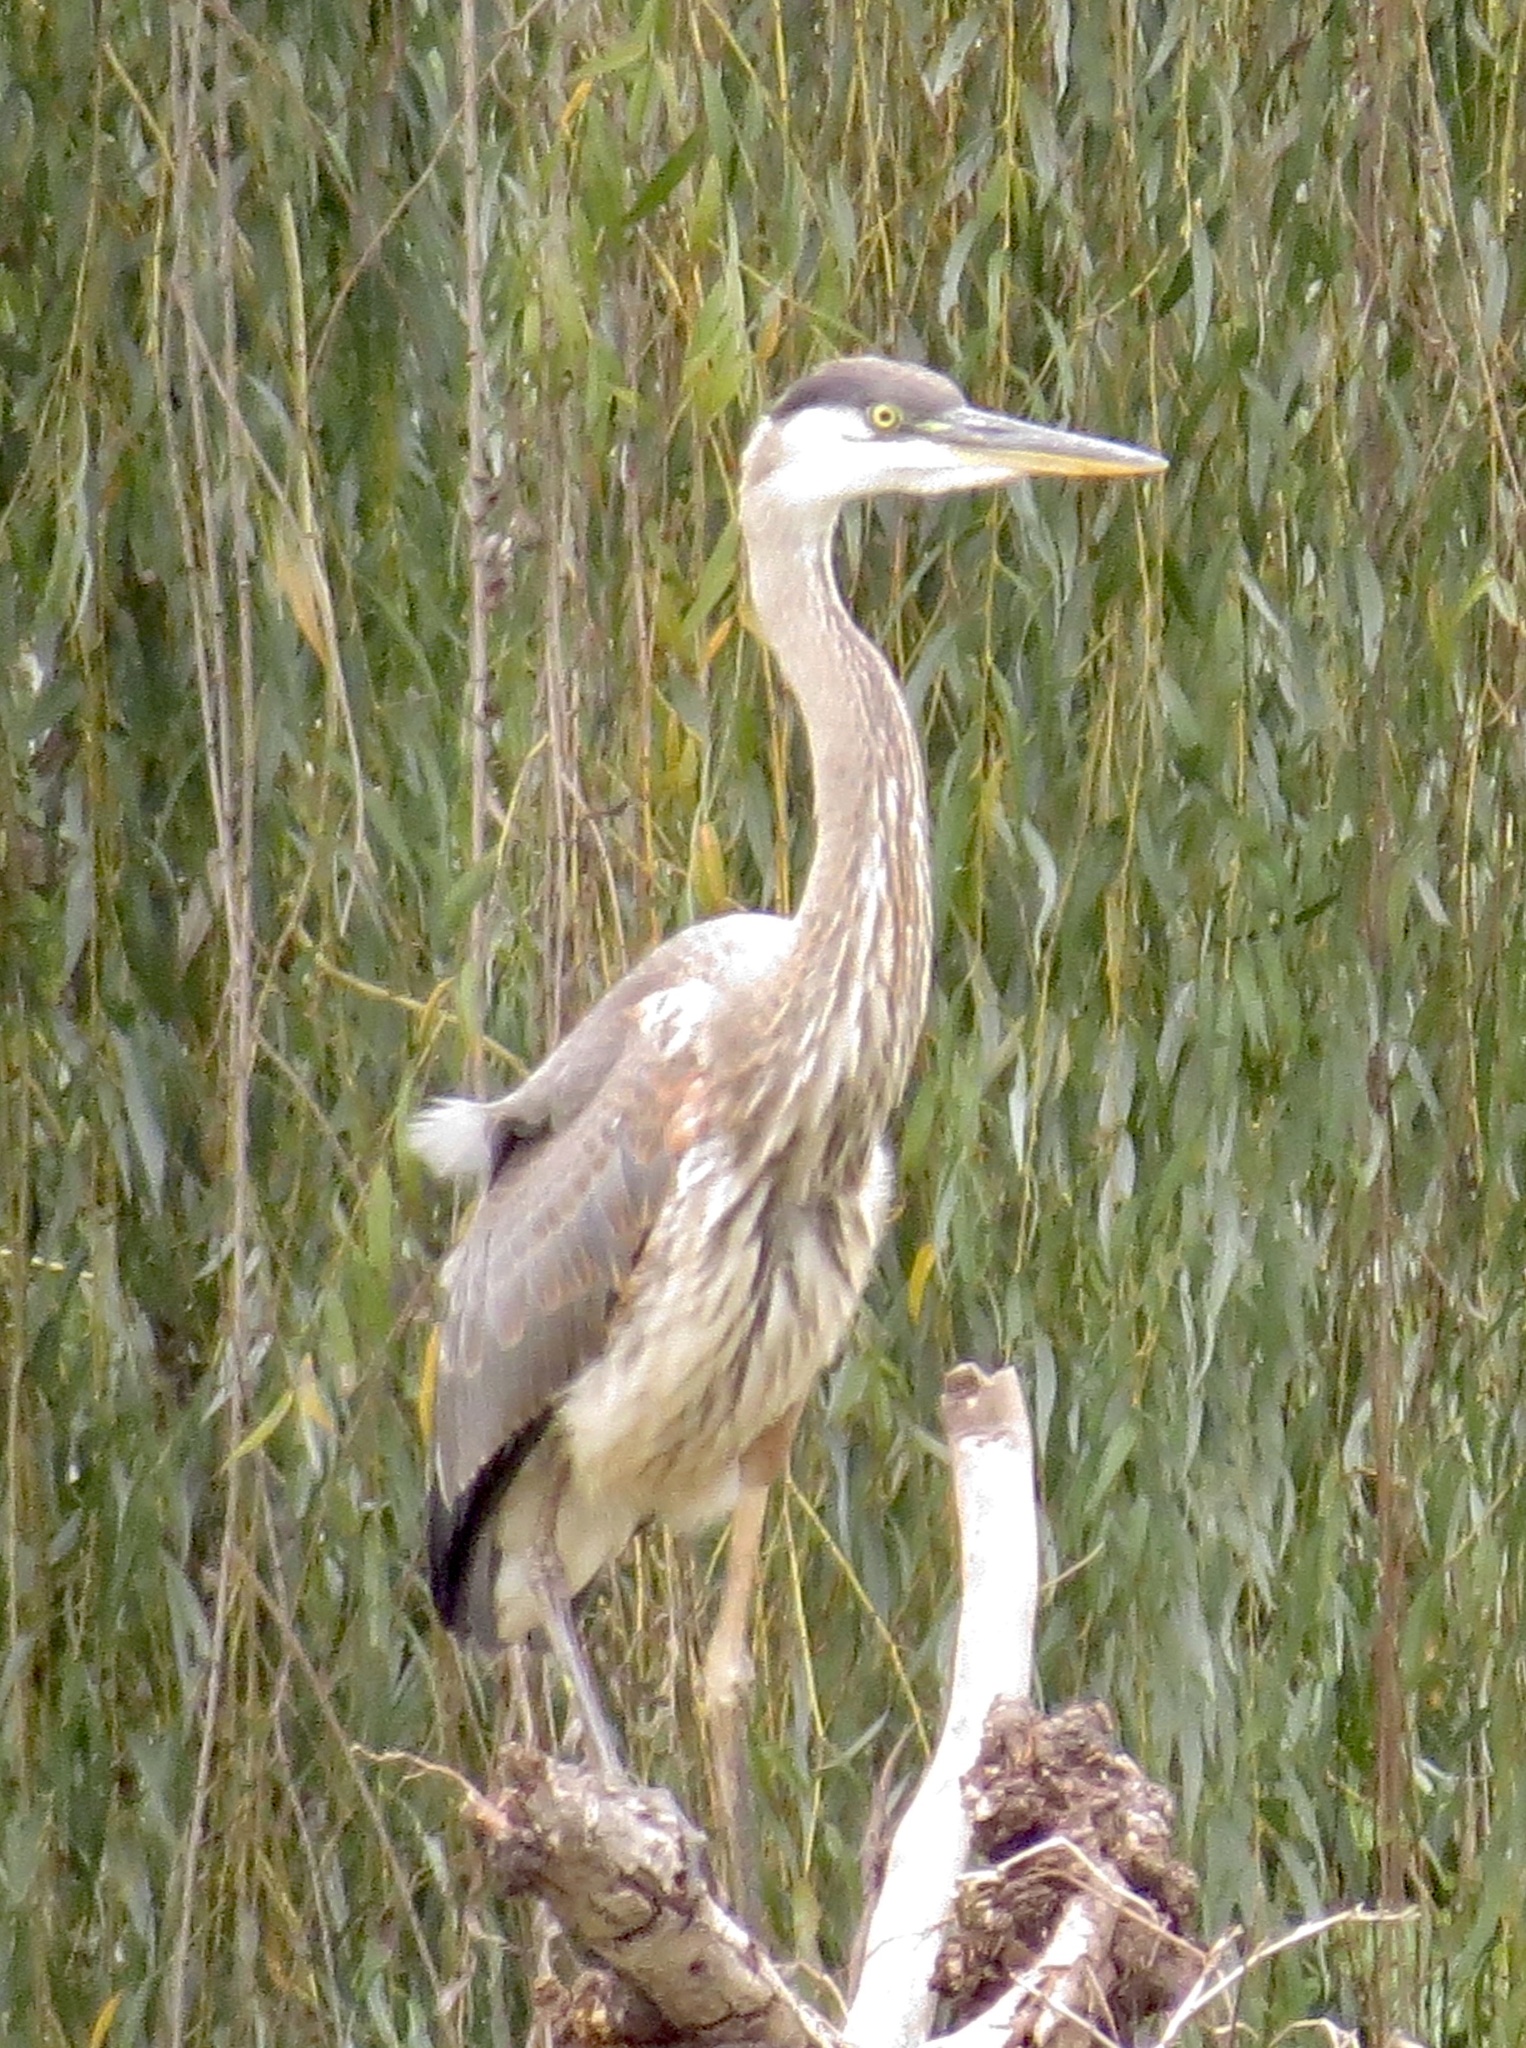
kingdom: Animalia
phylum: Chordata
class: Aves
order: Pelecaniformes
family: Ardeidae
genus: Ardea
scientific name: Ardea herodias
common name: Great blue heron
